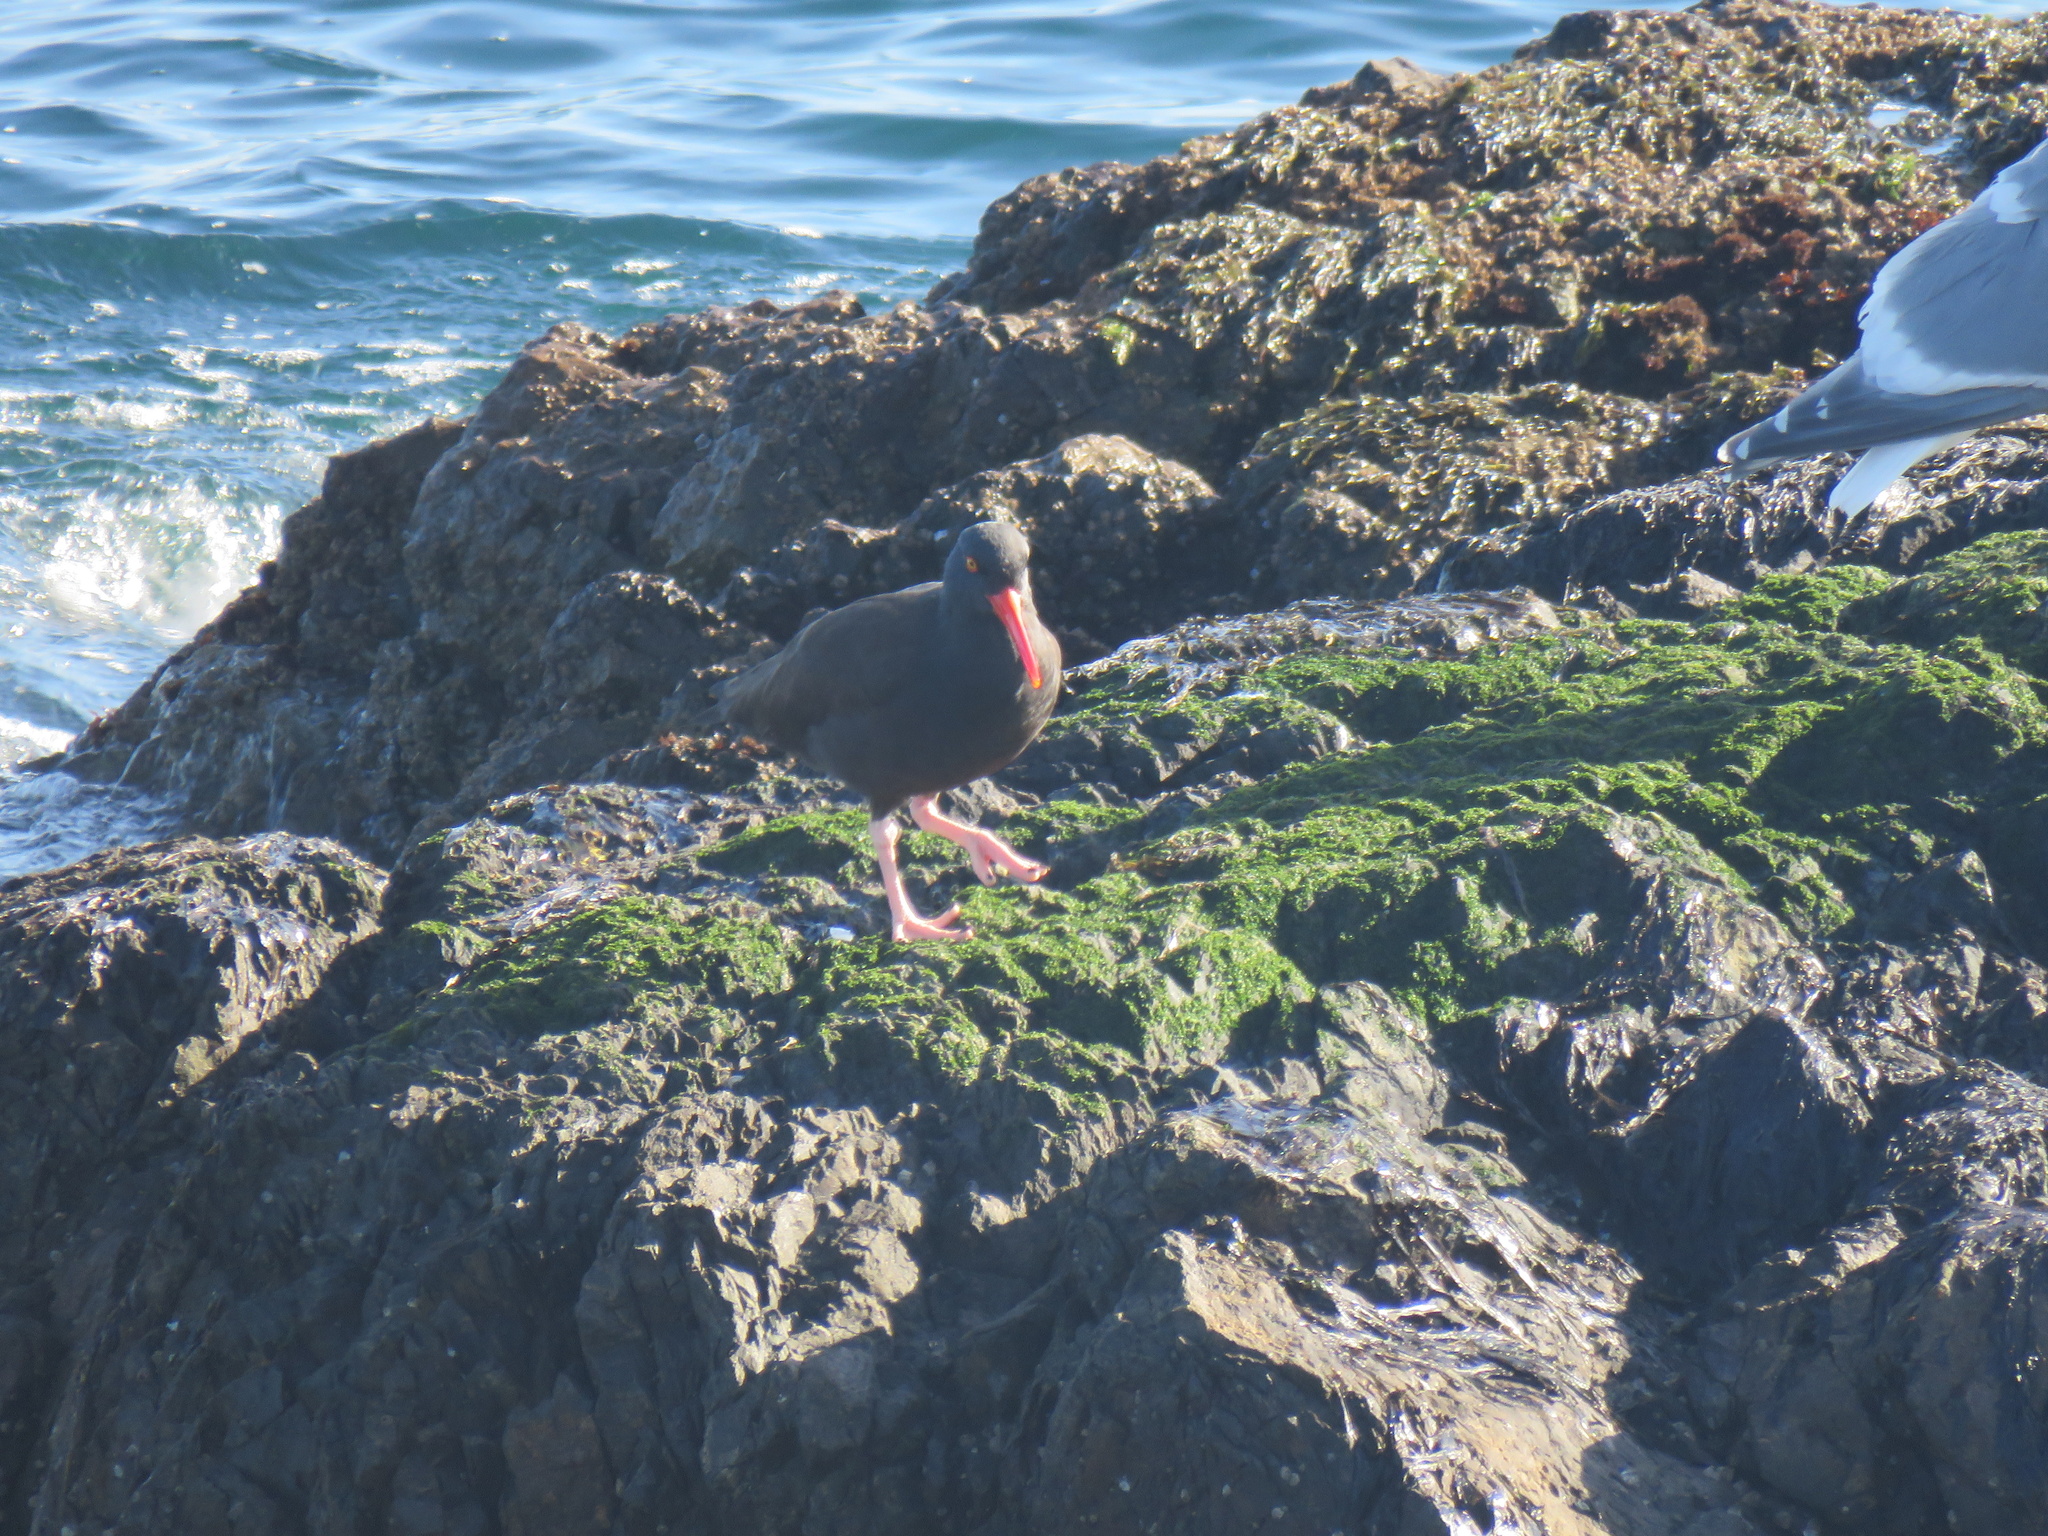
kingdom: Animalia
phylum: Chordata
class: Aves
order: Charadriiformes
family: Haematopodidae
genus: Haematopus
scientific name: Haematopus bachmani
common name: Black oystercatcher
